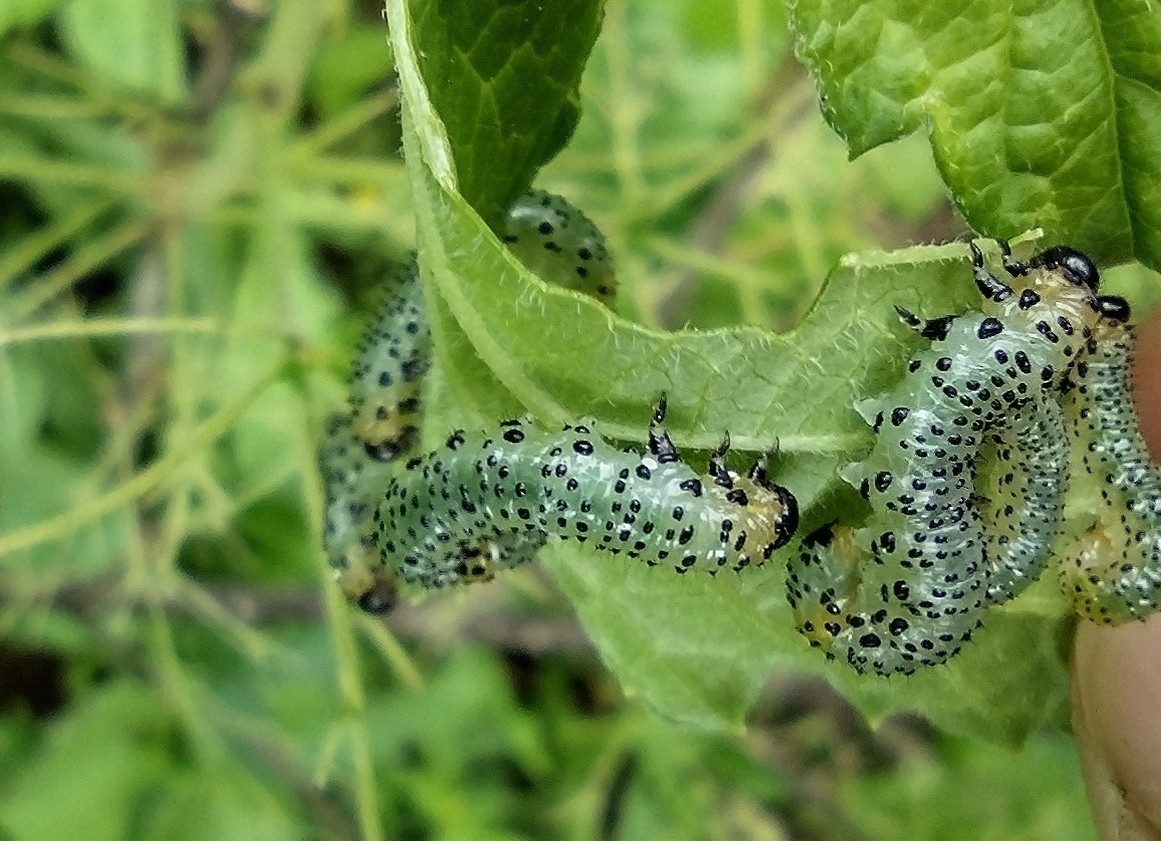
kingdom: Animalia
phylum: Arthropoda
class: Insecta
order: Hymenoptera
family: Tenthredinidae
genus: Nematus
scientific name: Nematus ribesii
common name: Imported currantworm
